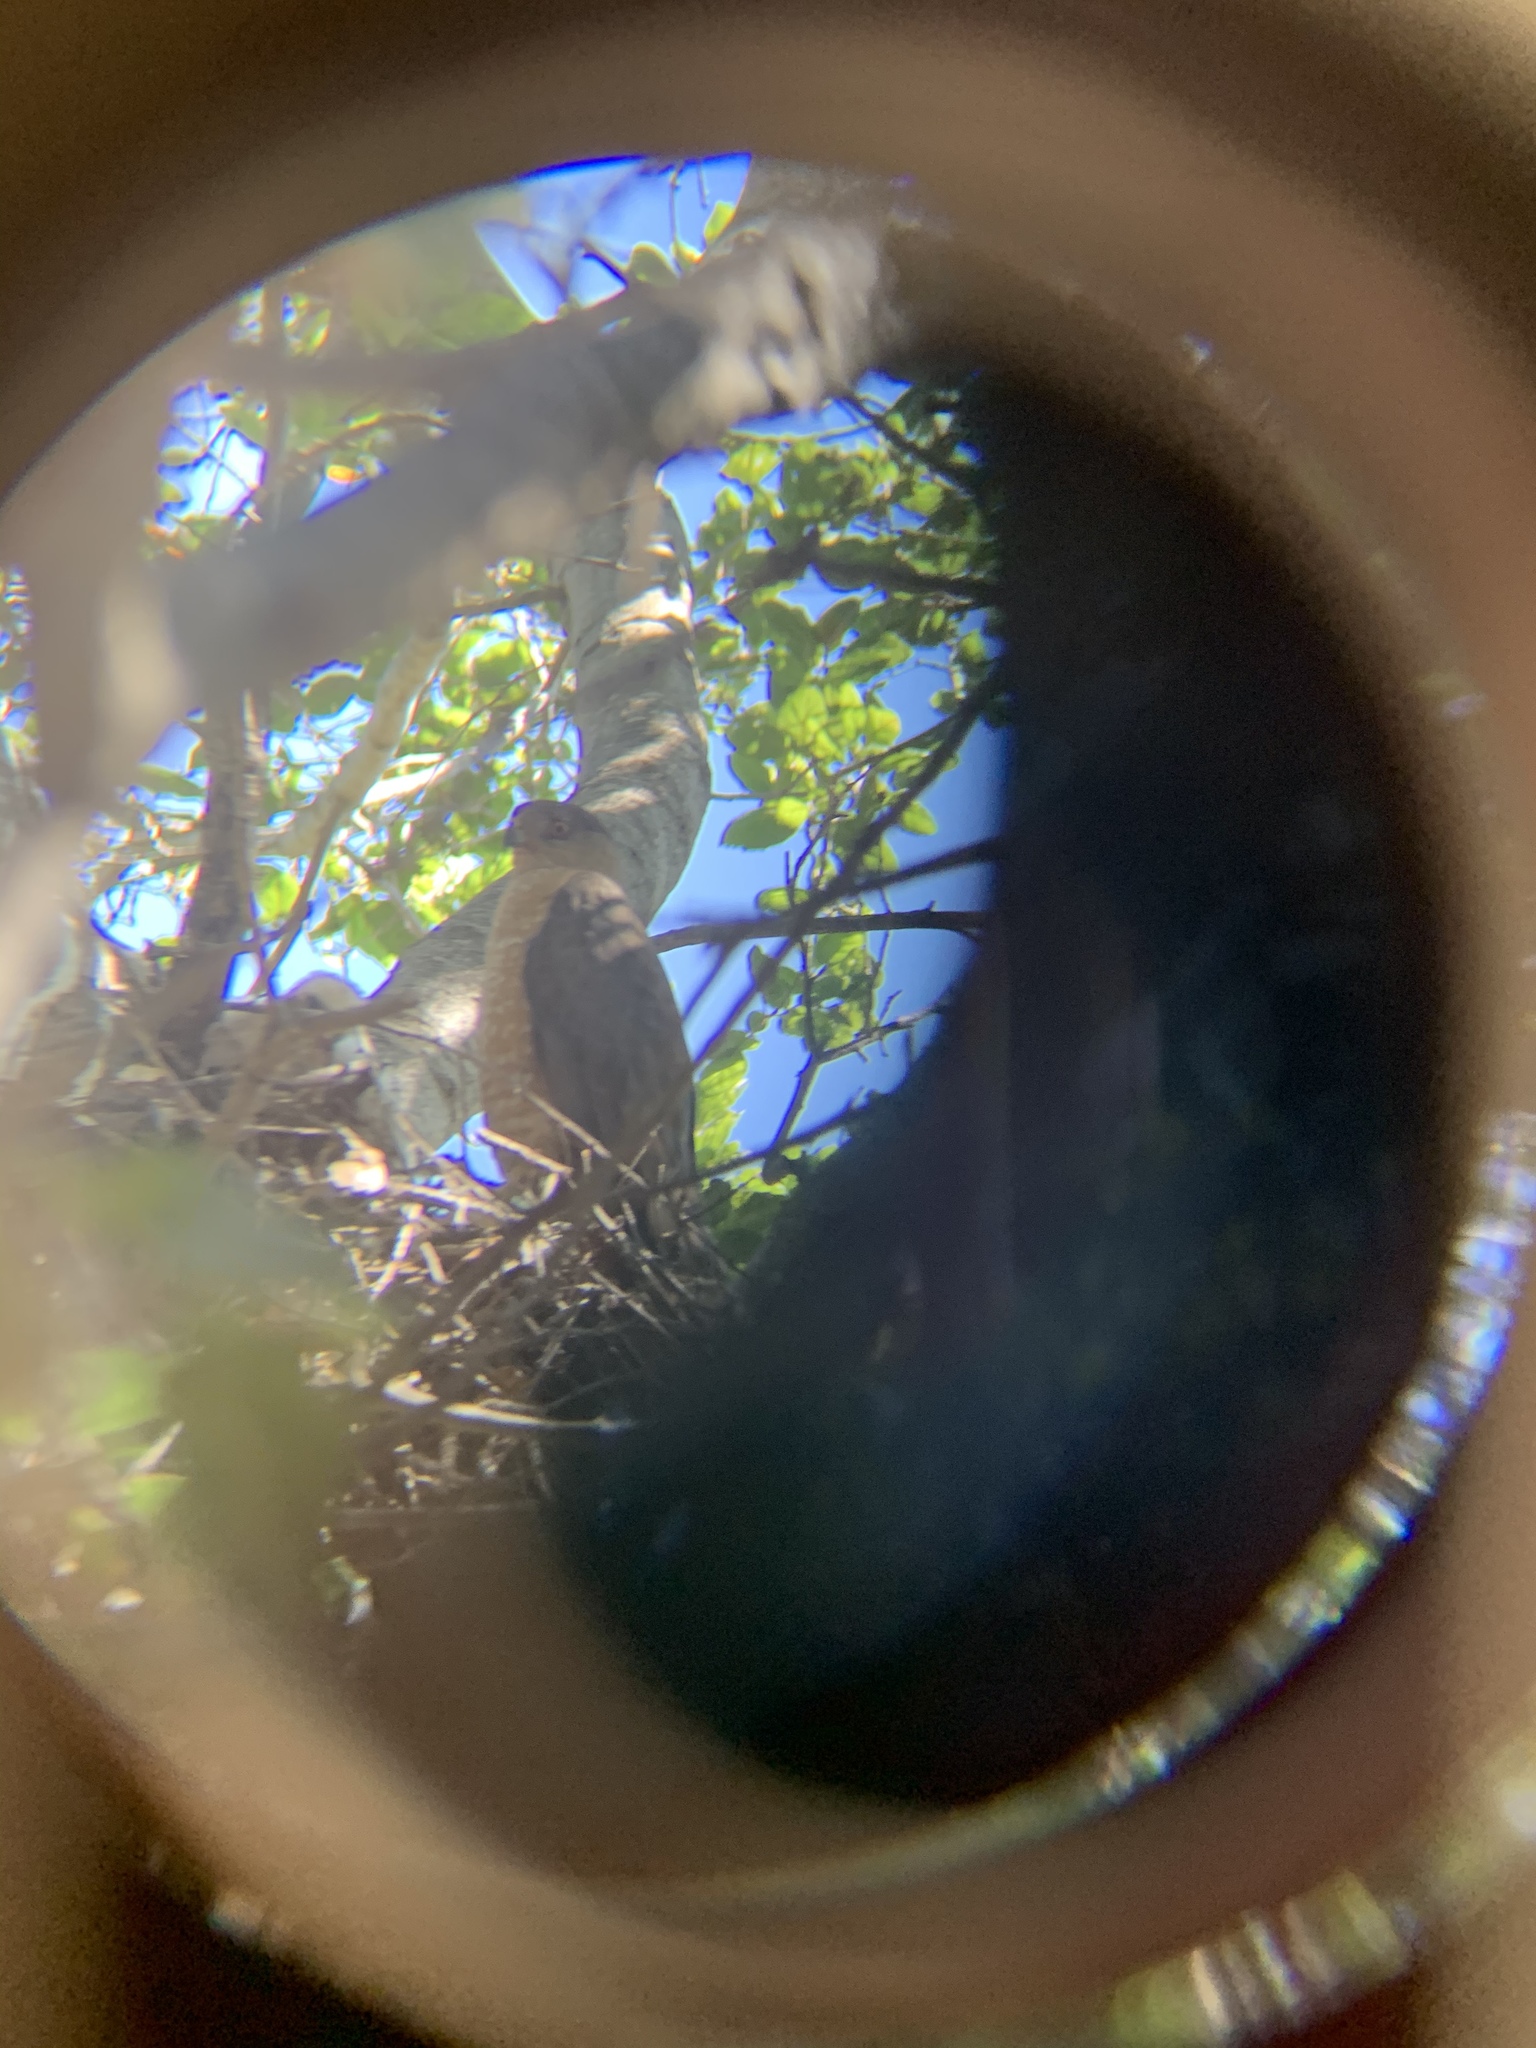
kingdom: Animalia
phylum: Chordata
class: Aves
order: Accipitriformes
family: Accipitridae
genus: Accipiter
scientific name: Accipiter cooperii
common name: Cooper's hawk
